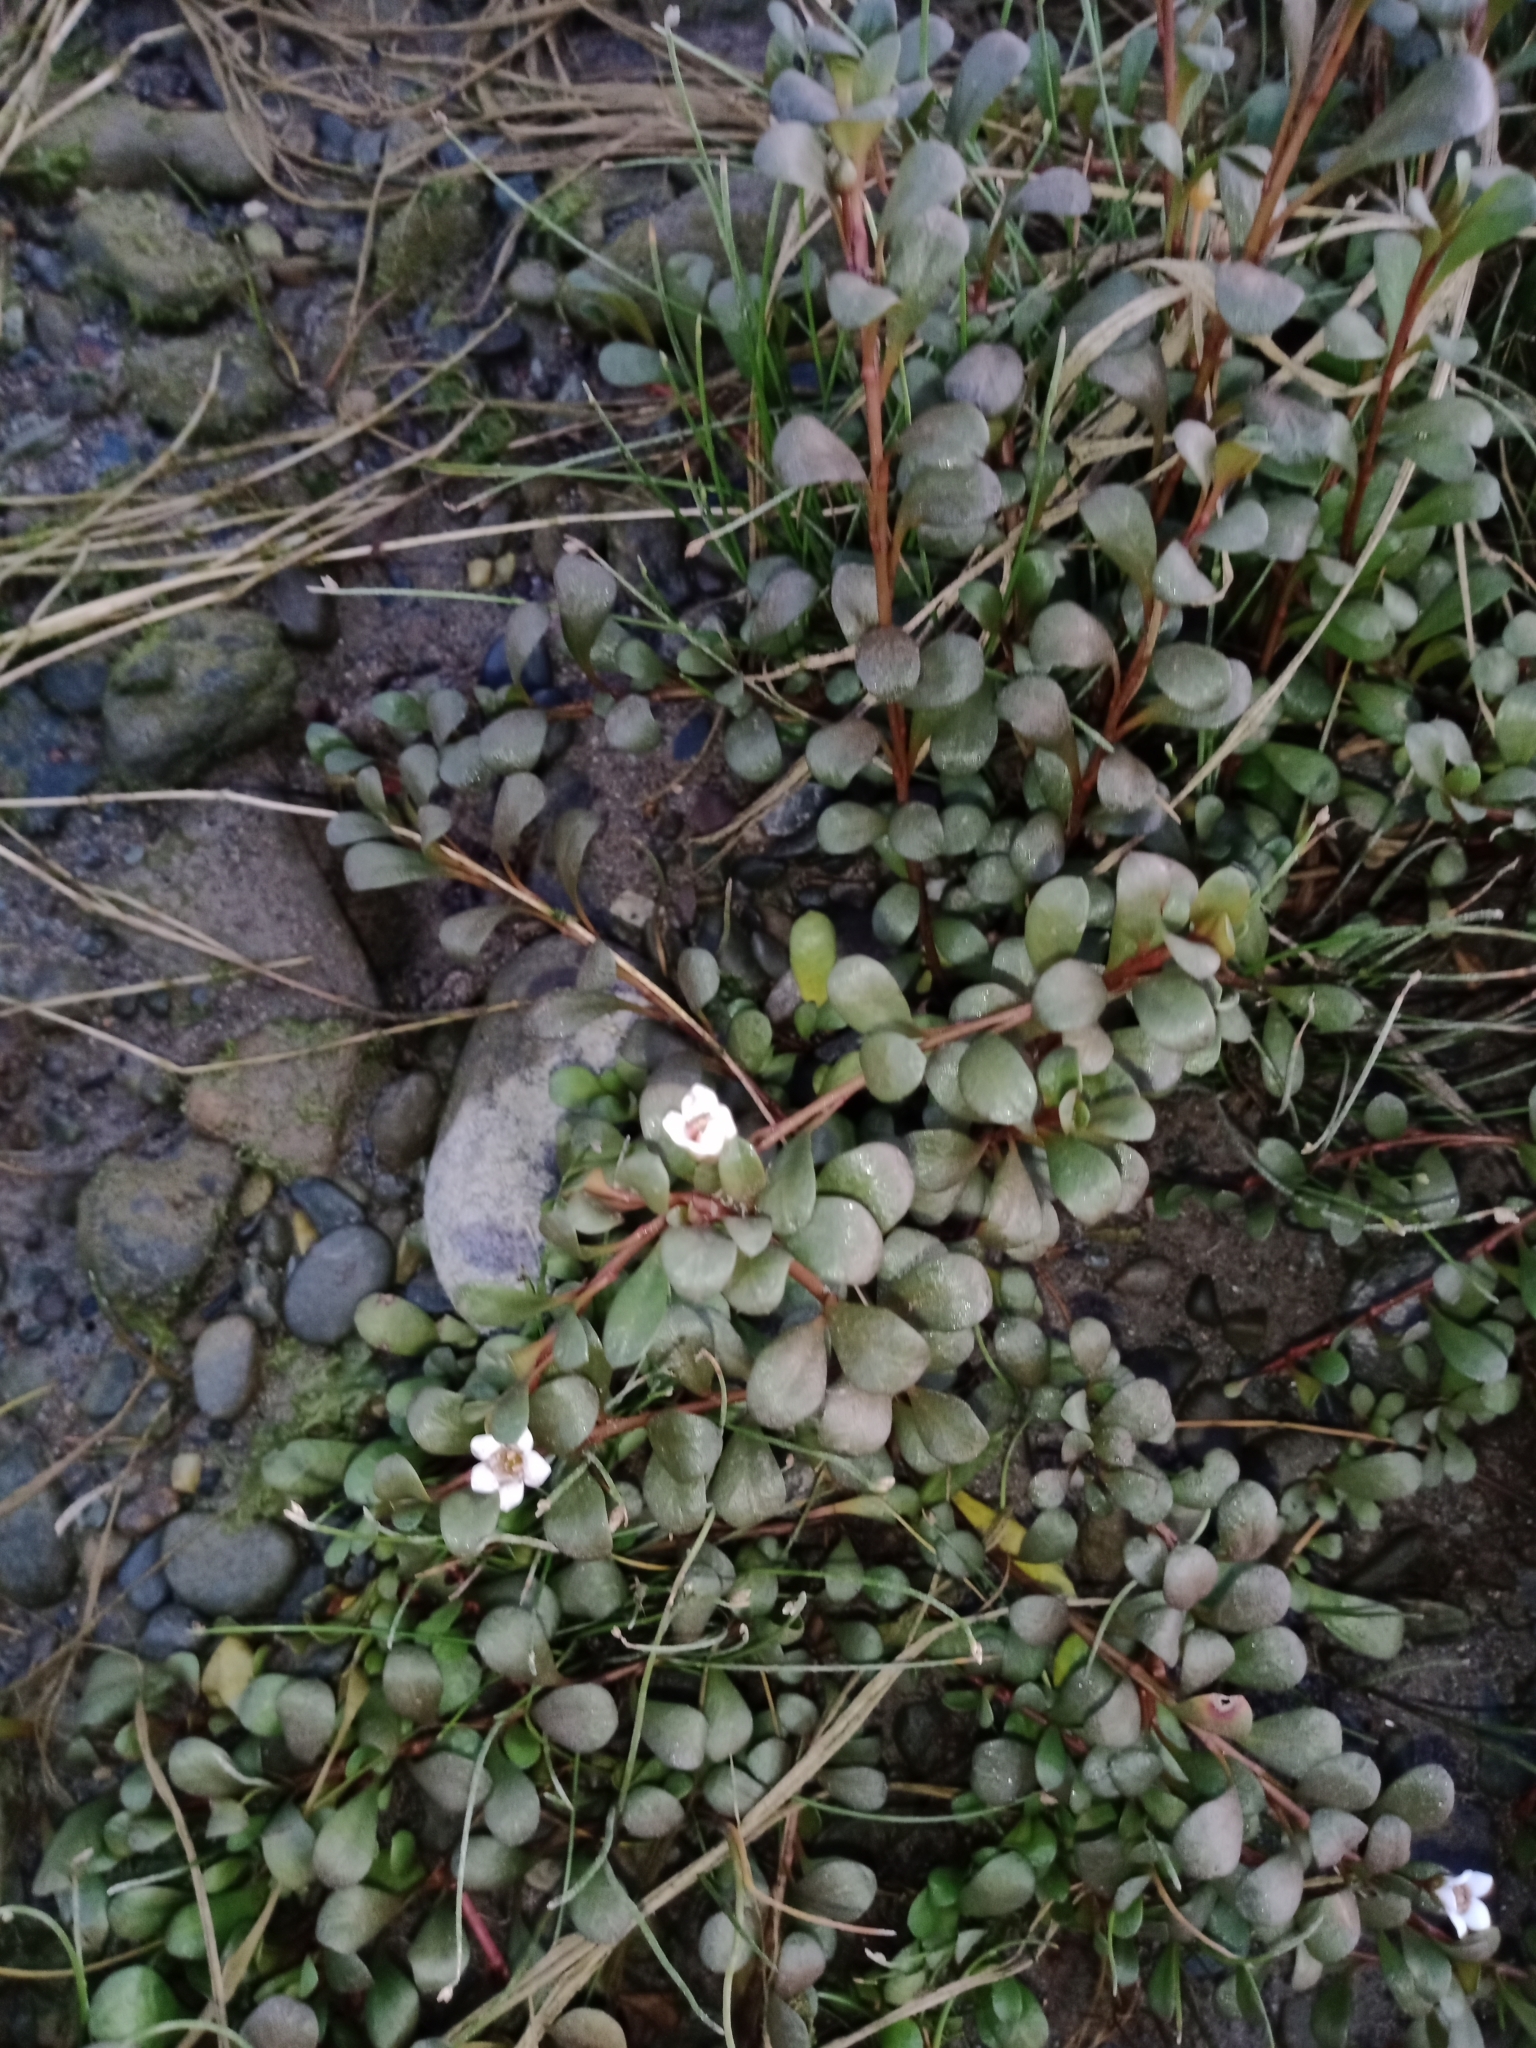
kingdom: Plantae
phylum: Tracheophyta
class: Magnoliopsida
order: Ericales
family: Primulaceae
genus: Samolus
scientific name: Samolus repens
